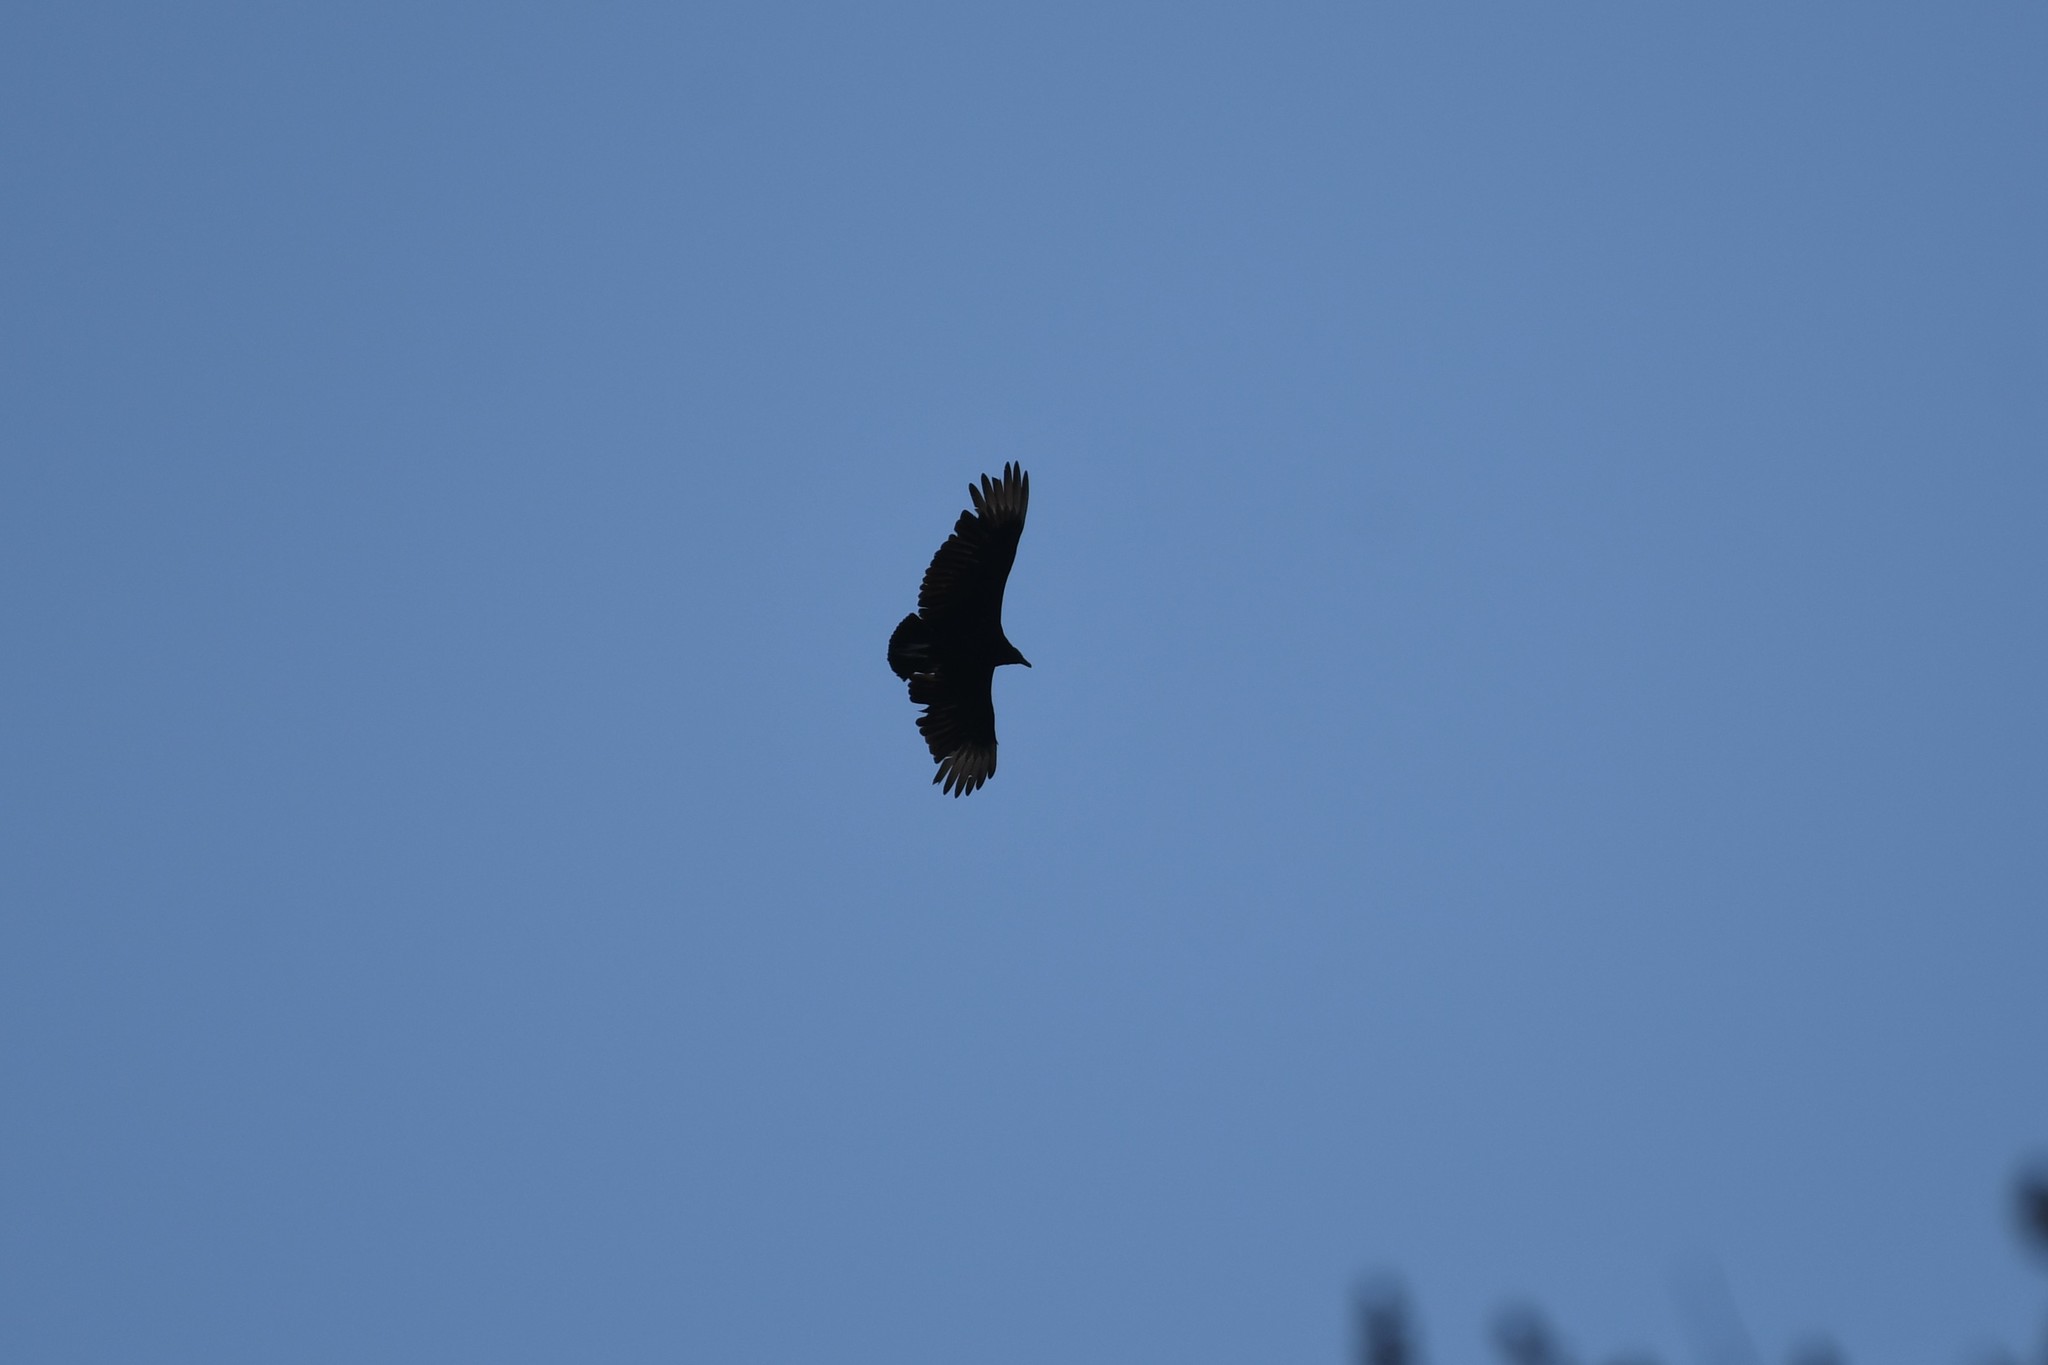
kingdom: Animalia
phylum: Chordata
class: Aves
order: Accipitriformes
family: Cathartidae
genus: Coragyps
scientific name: Coragyps atratus
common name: Black vulture
